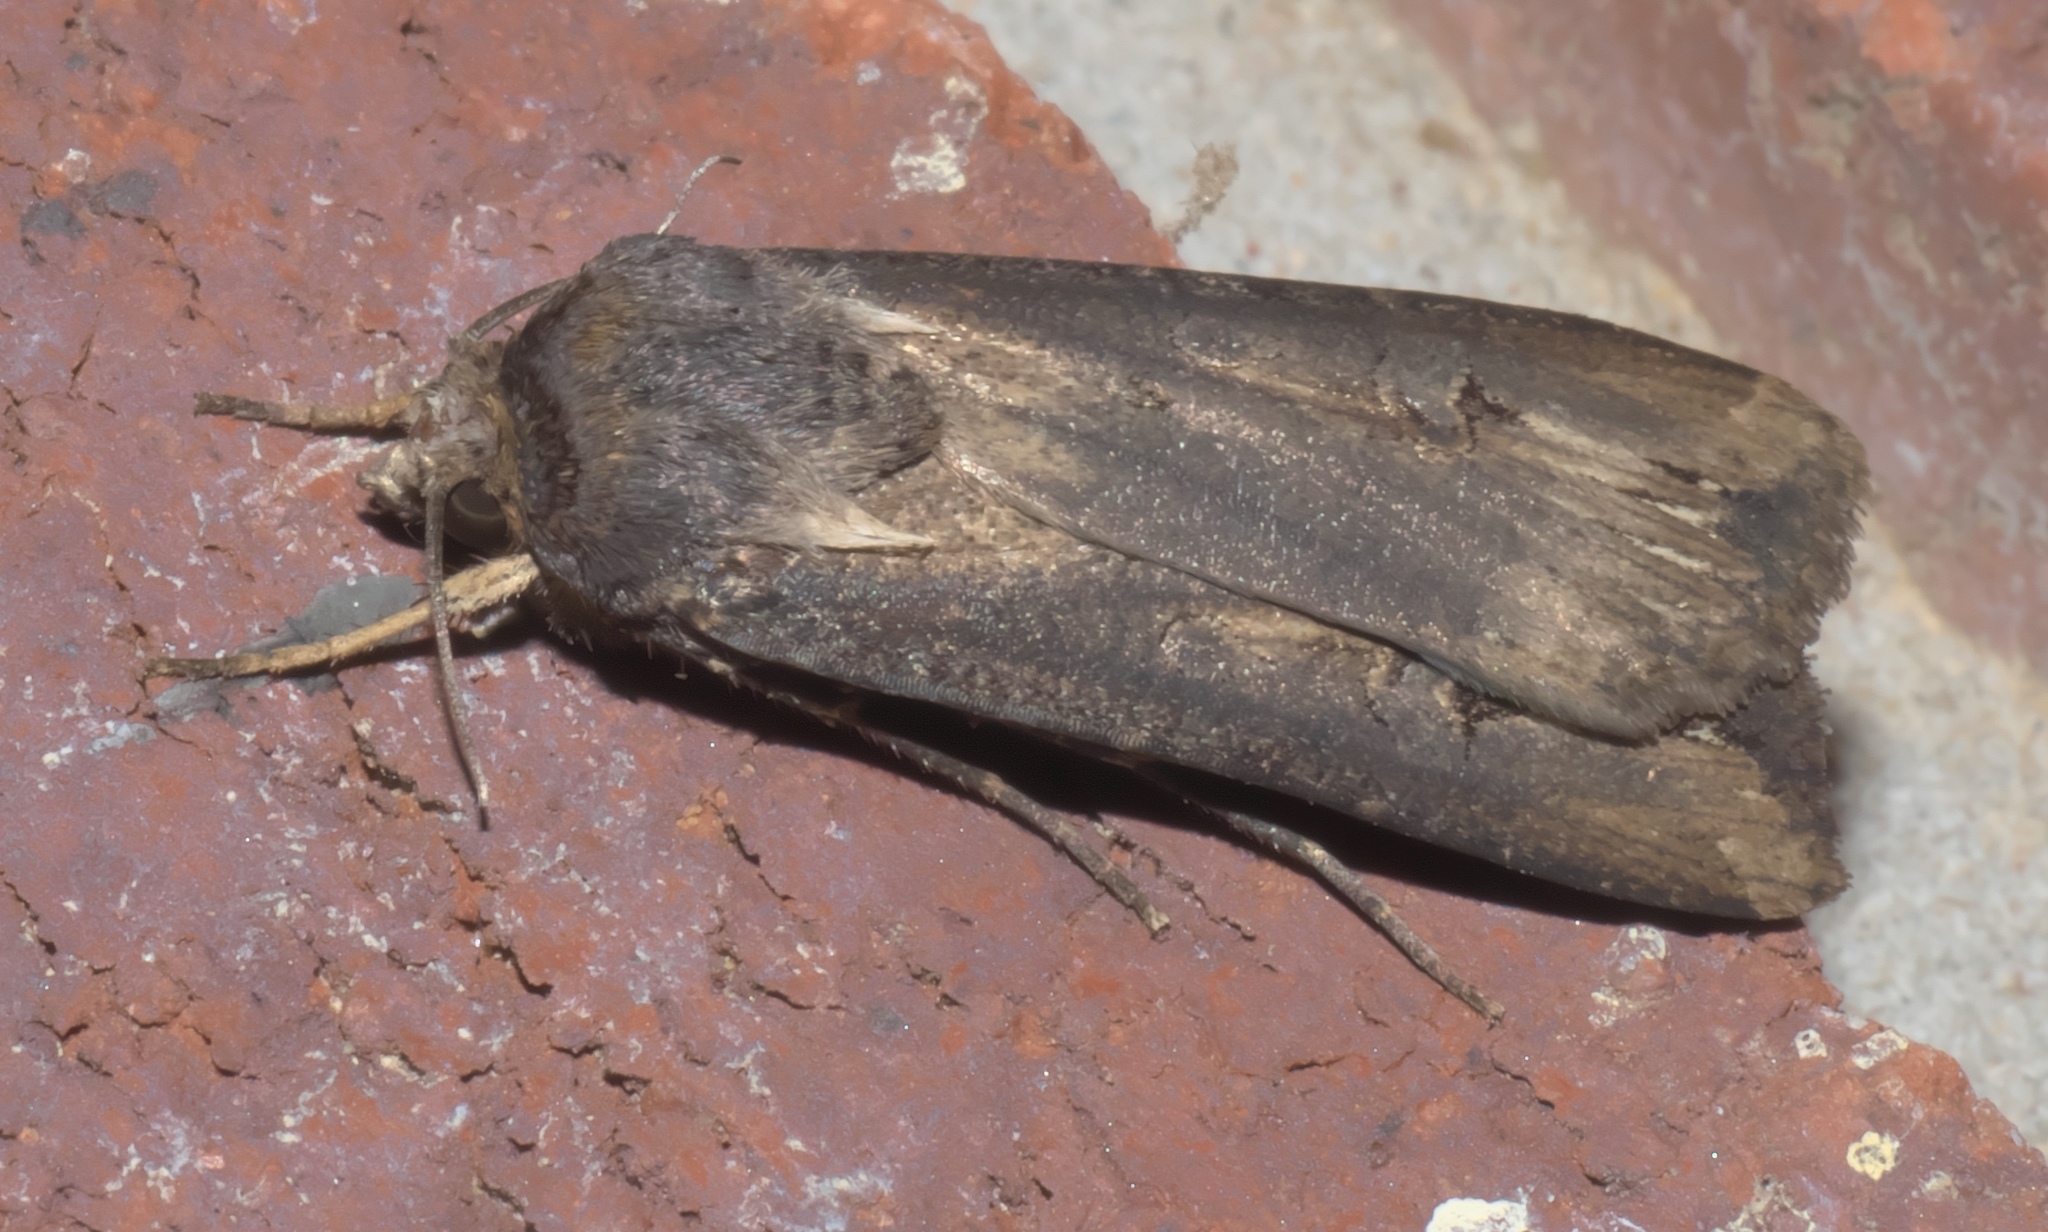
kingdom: Animalia
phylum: Arthropoda
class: Insecta
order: Lepidoptera
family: Noctuidae
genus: Agrotis
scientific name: Agrotis ipsilon
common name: Dark sword-grass
